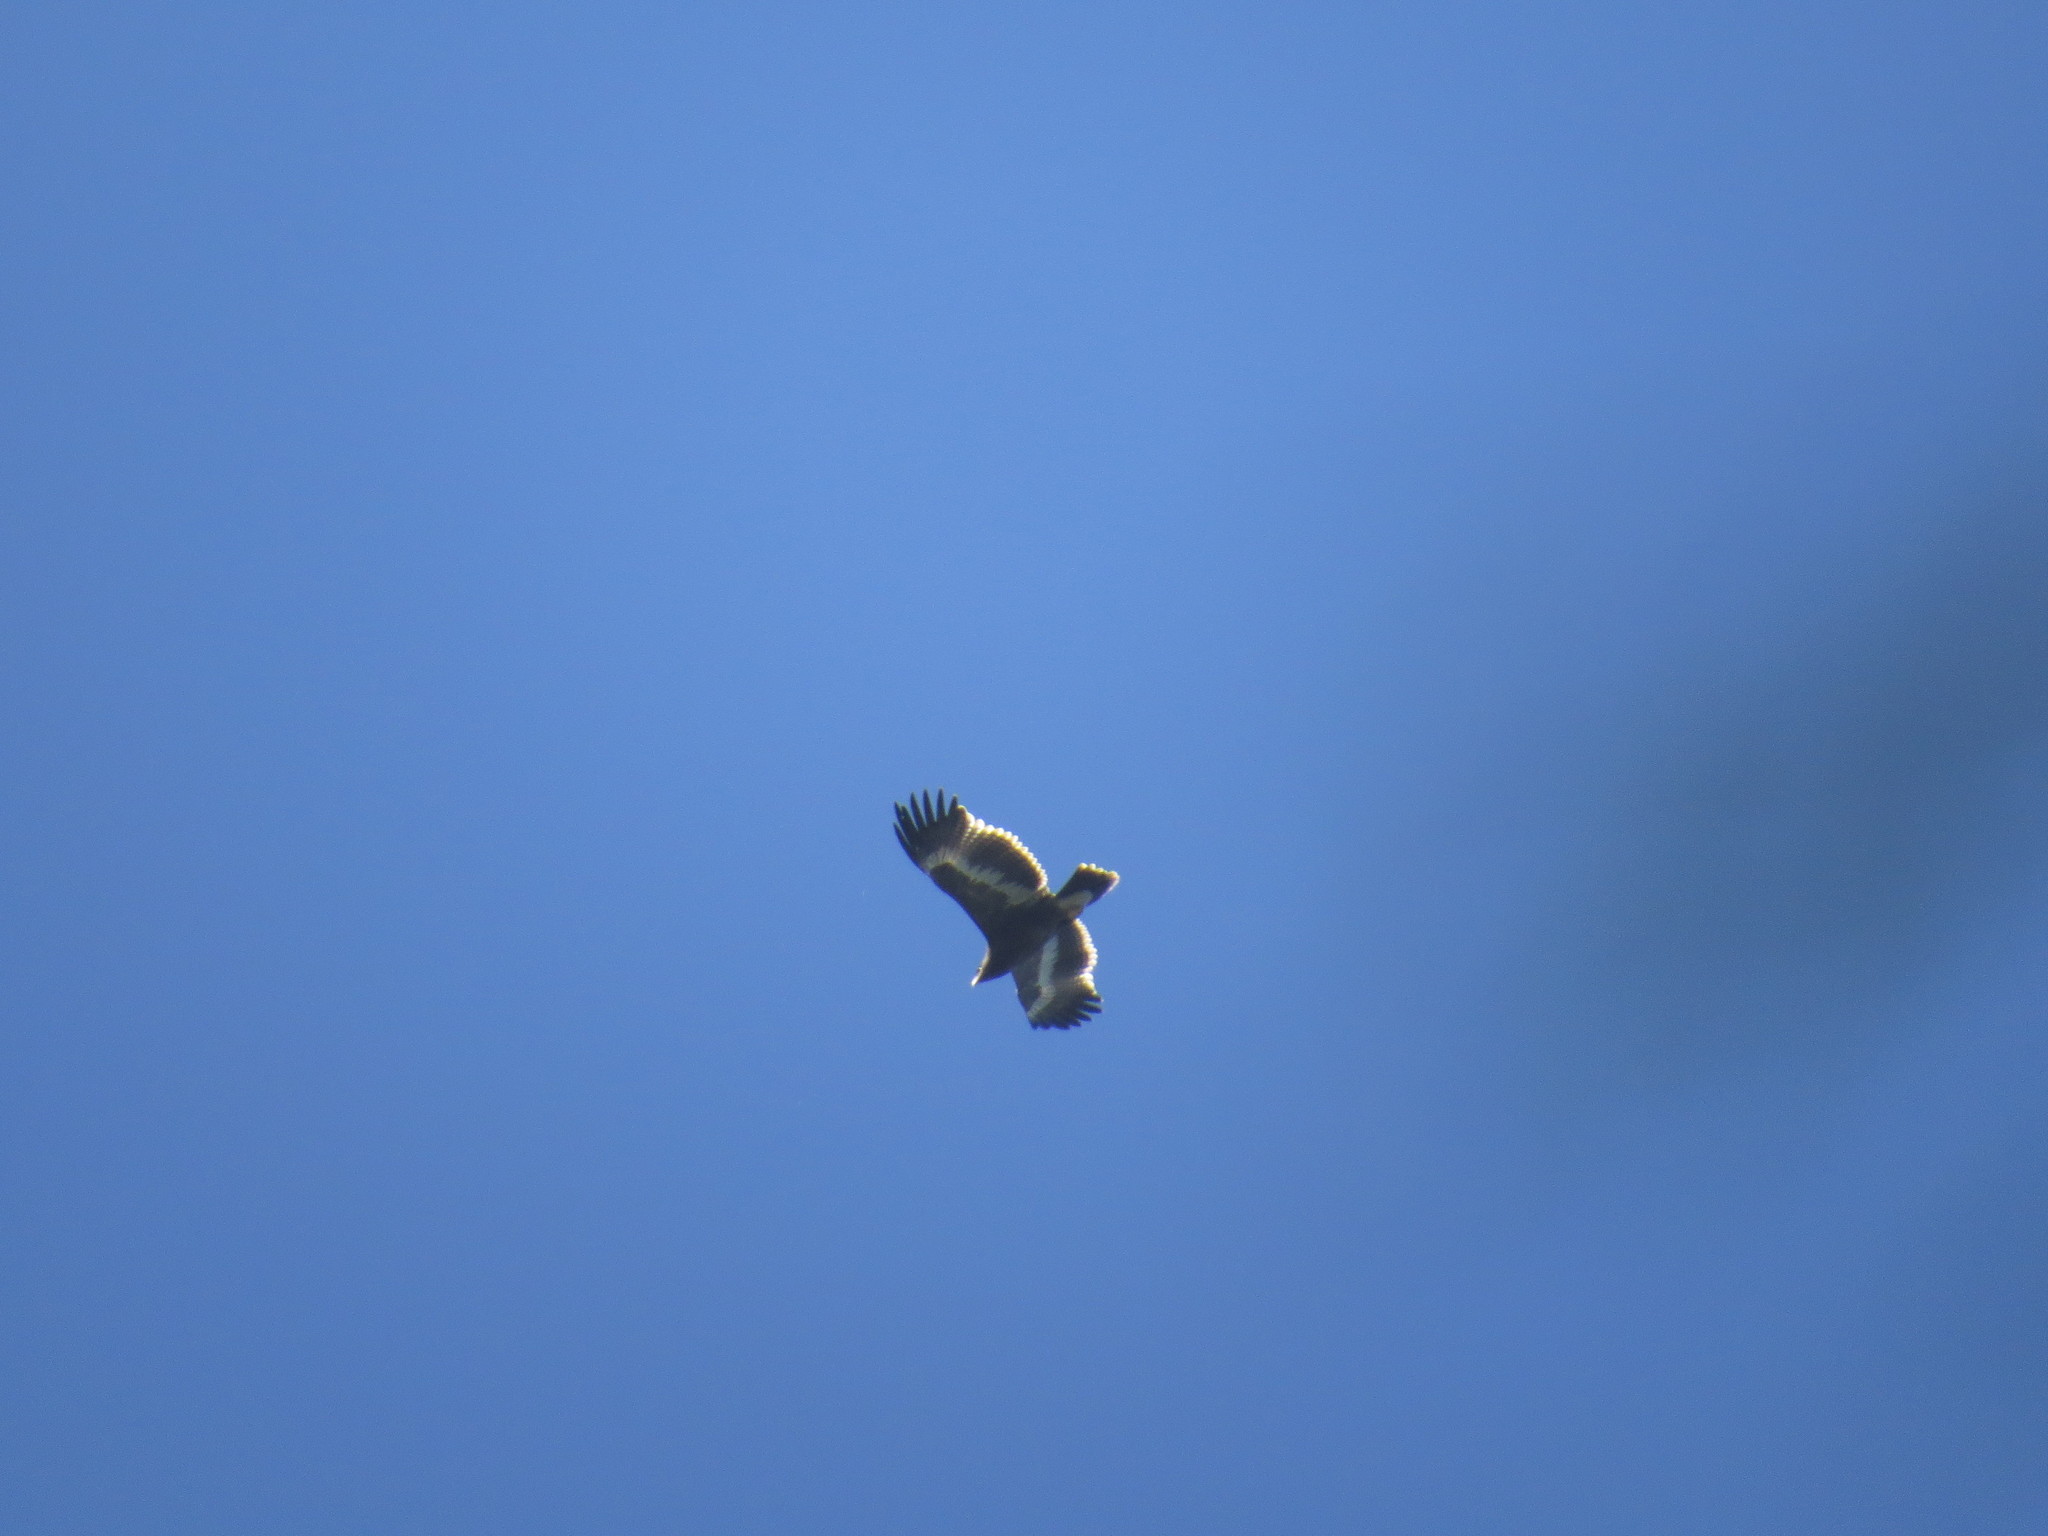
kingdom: Animalia
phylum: Chordata
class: Aves
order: Accipitriformes
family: Accipitridae
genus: Aquila
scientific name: Aquila nipalensis
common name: Steppe eagle
